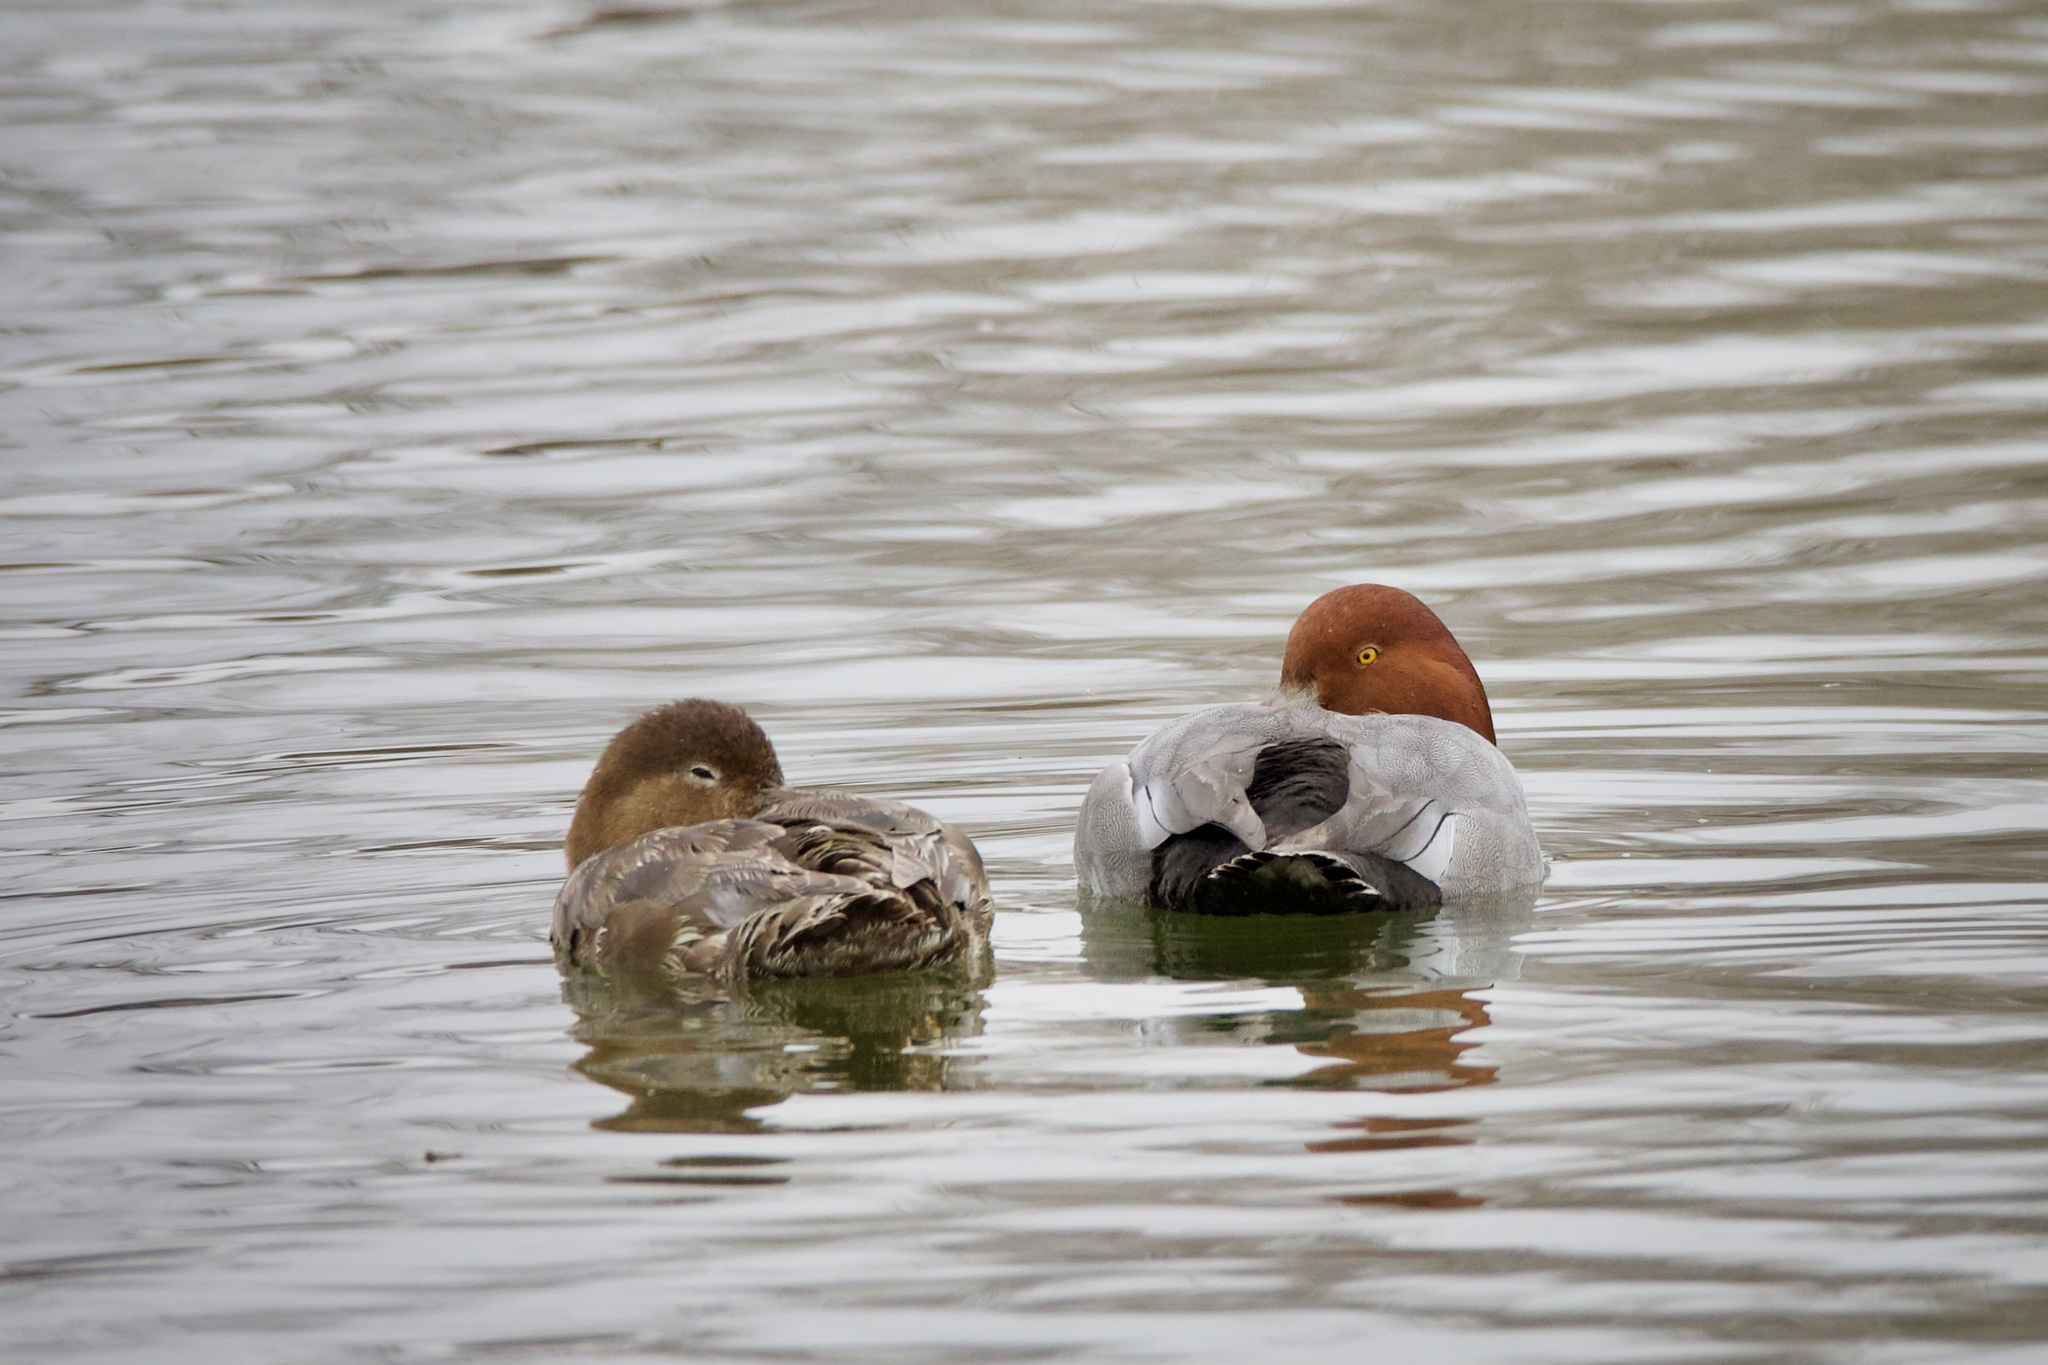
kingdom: Animalia
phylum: Chordata
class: Aves
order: Anseriformes
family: Anatidae
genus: Aythya
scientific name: Aythya americana
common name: Redhead
